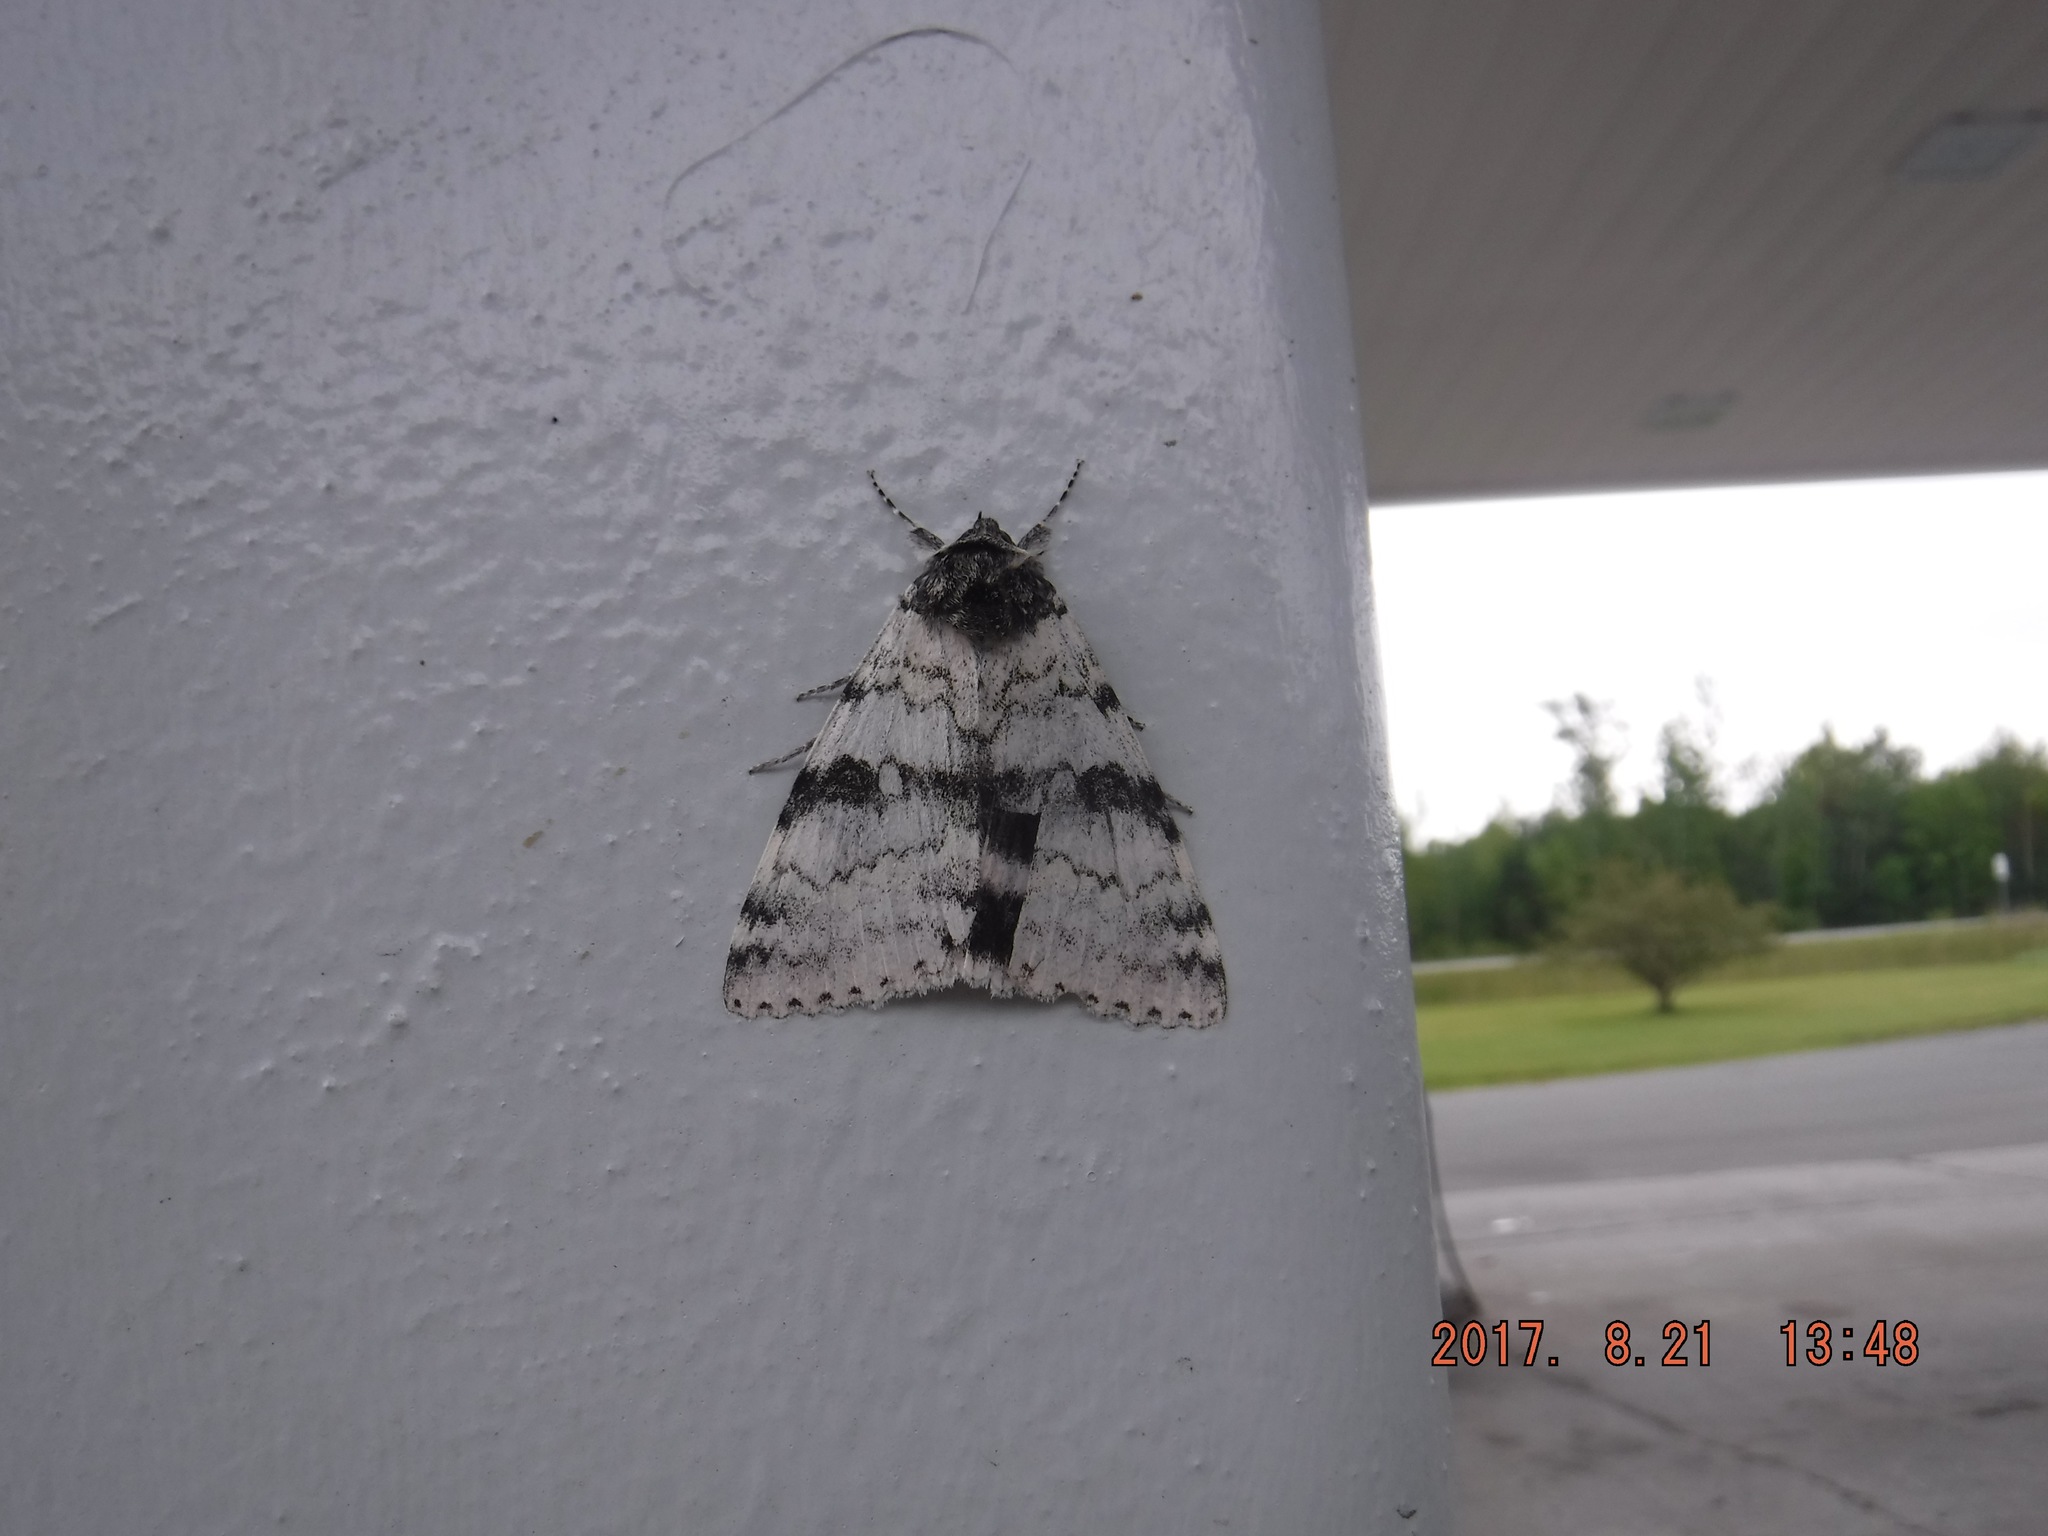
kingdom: Animalia
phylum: Arthropoda
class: Insecta
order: Lepidoptera
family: Erebidae
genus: Catocala
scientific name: Catocala relicta
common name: White underwing
